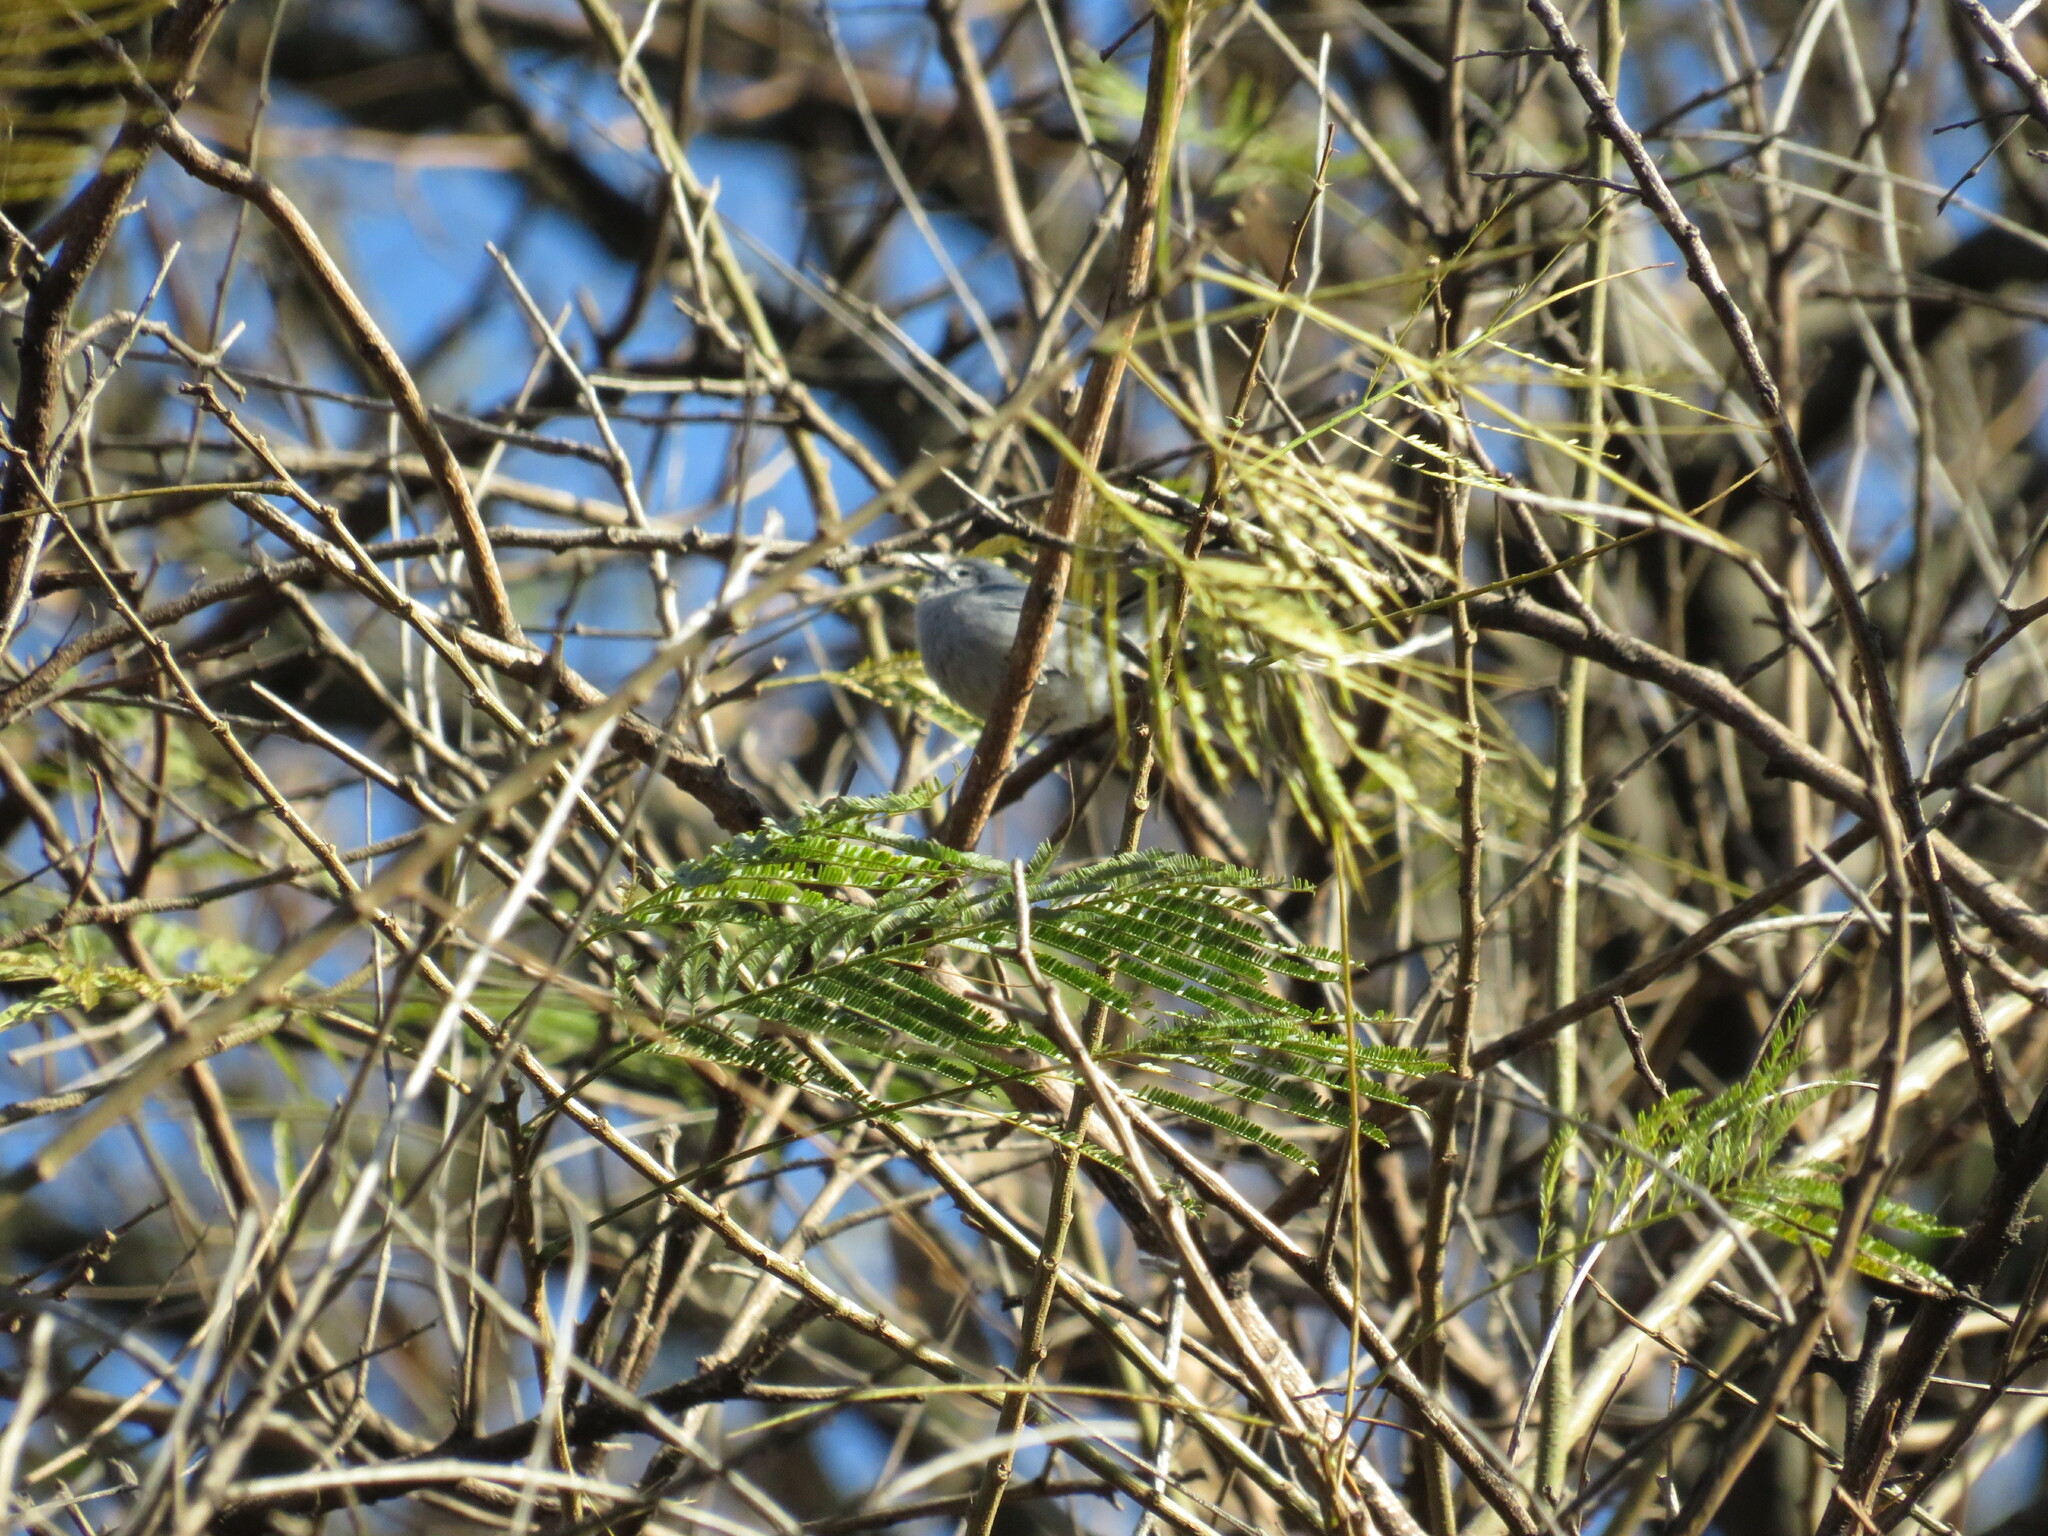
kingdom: Animalia
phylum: Chordata
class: Aves
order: Passeriformes
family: Polioptilidae
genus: Polioptila
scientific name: Polioptila dumicola
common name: Masked gnatcatcher
